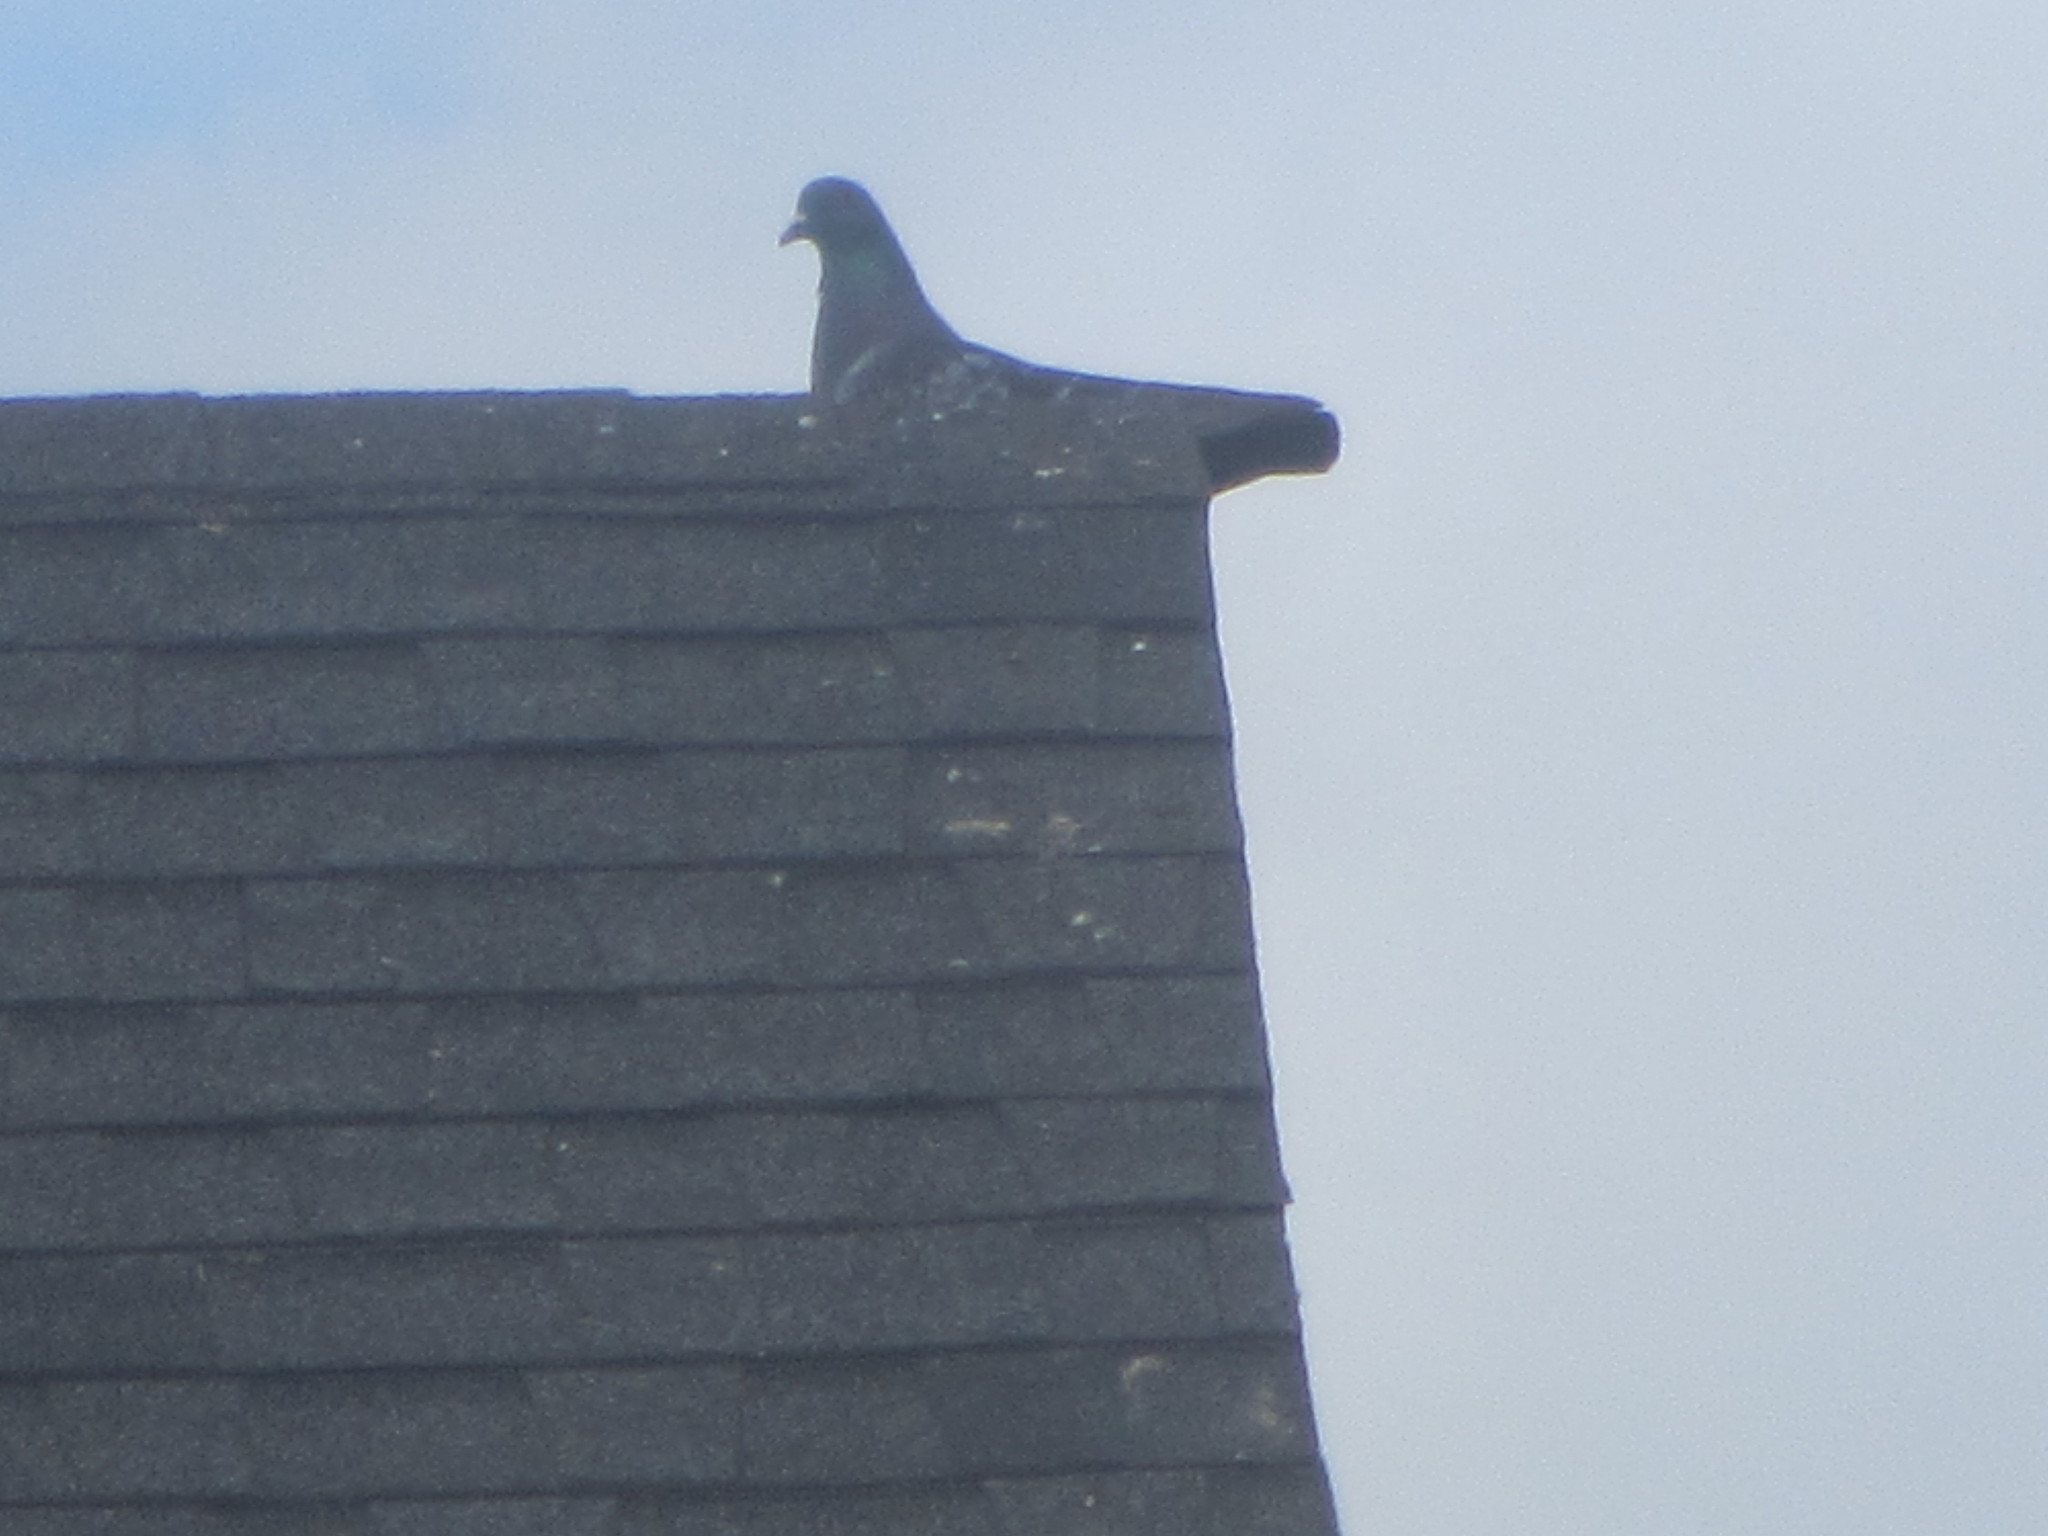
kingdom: Animalia
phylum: Chordata
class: Aves
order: Columbiformes
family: Columbidae
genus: Columba
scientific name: Columba livia
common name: Rock pigeon
